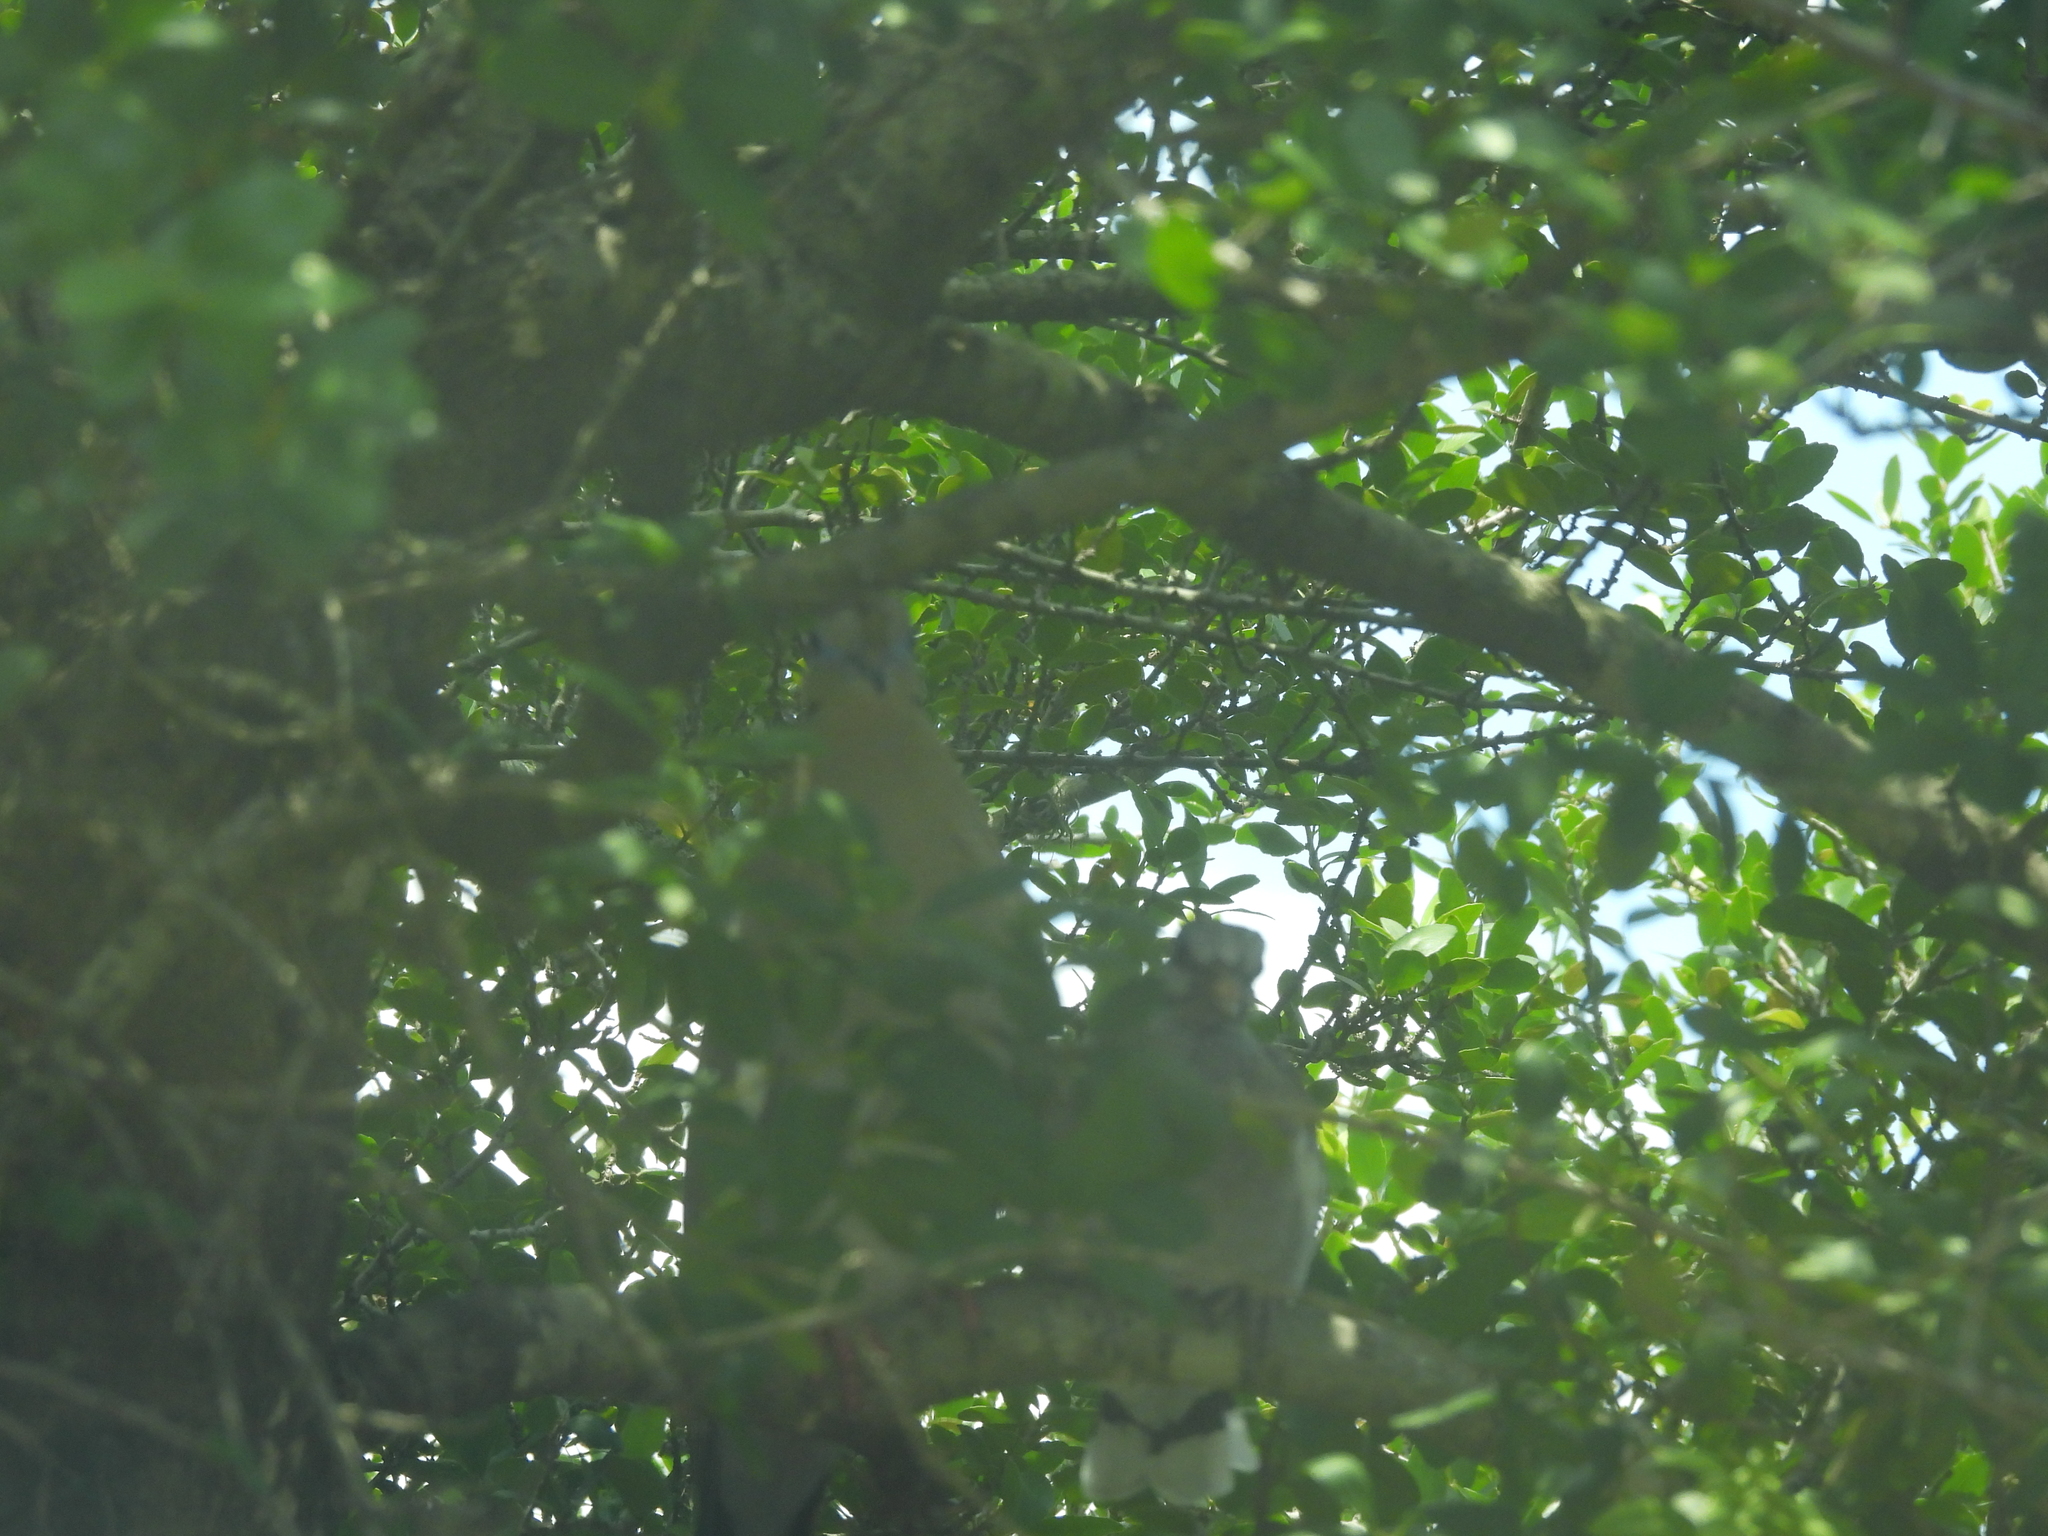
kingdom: Animalia
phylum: Chordata
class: Aves
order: Columbiformes
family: Columbidae
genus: Zenaida
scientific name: Zenaida asiatica
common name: White-winged dove
